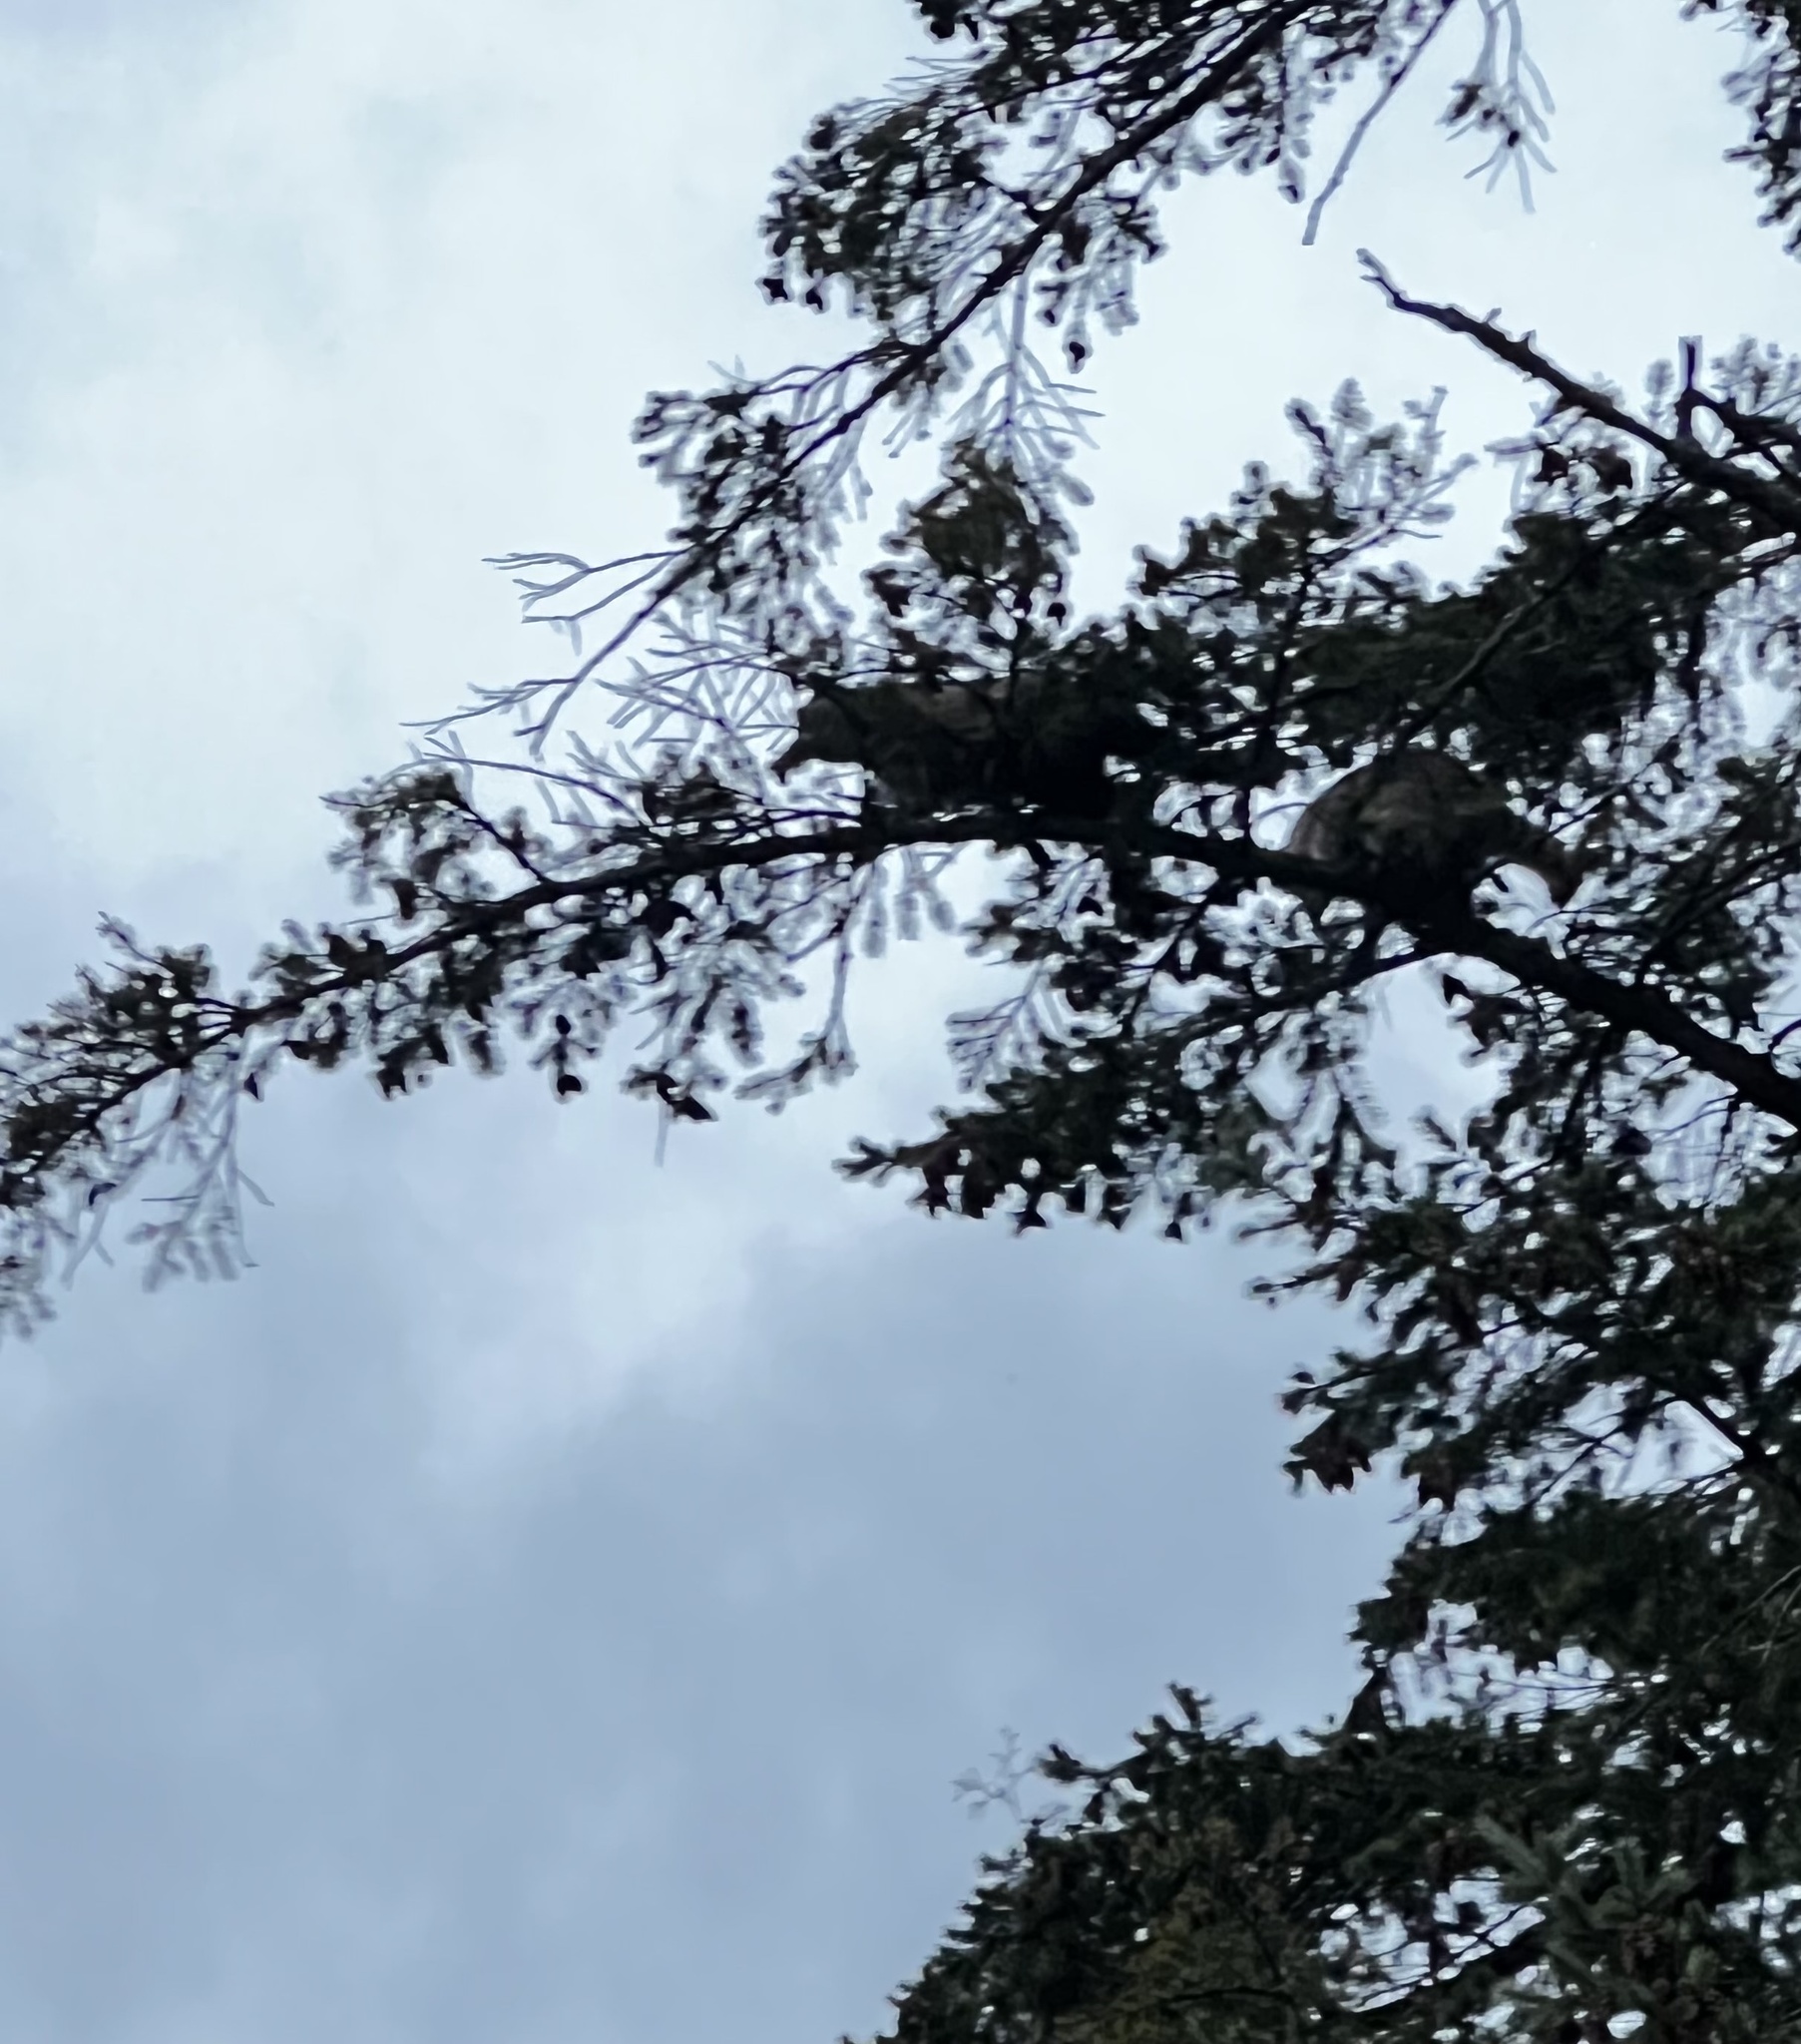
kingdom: Animalia
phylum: Chordata
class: Mammalia
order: Carnivora
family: Procyonidae
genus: Procyon
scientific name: Procyon lotor
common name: Raccoon
